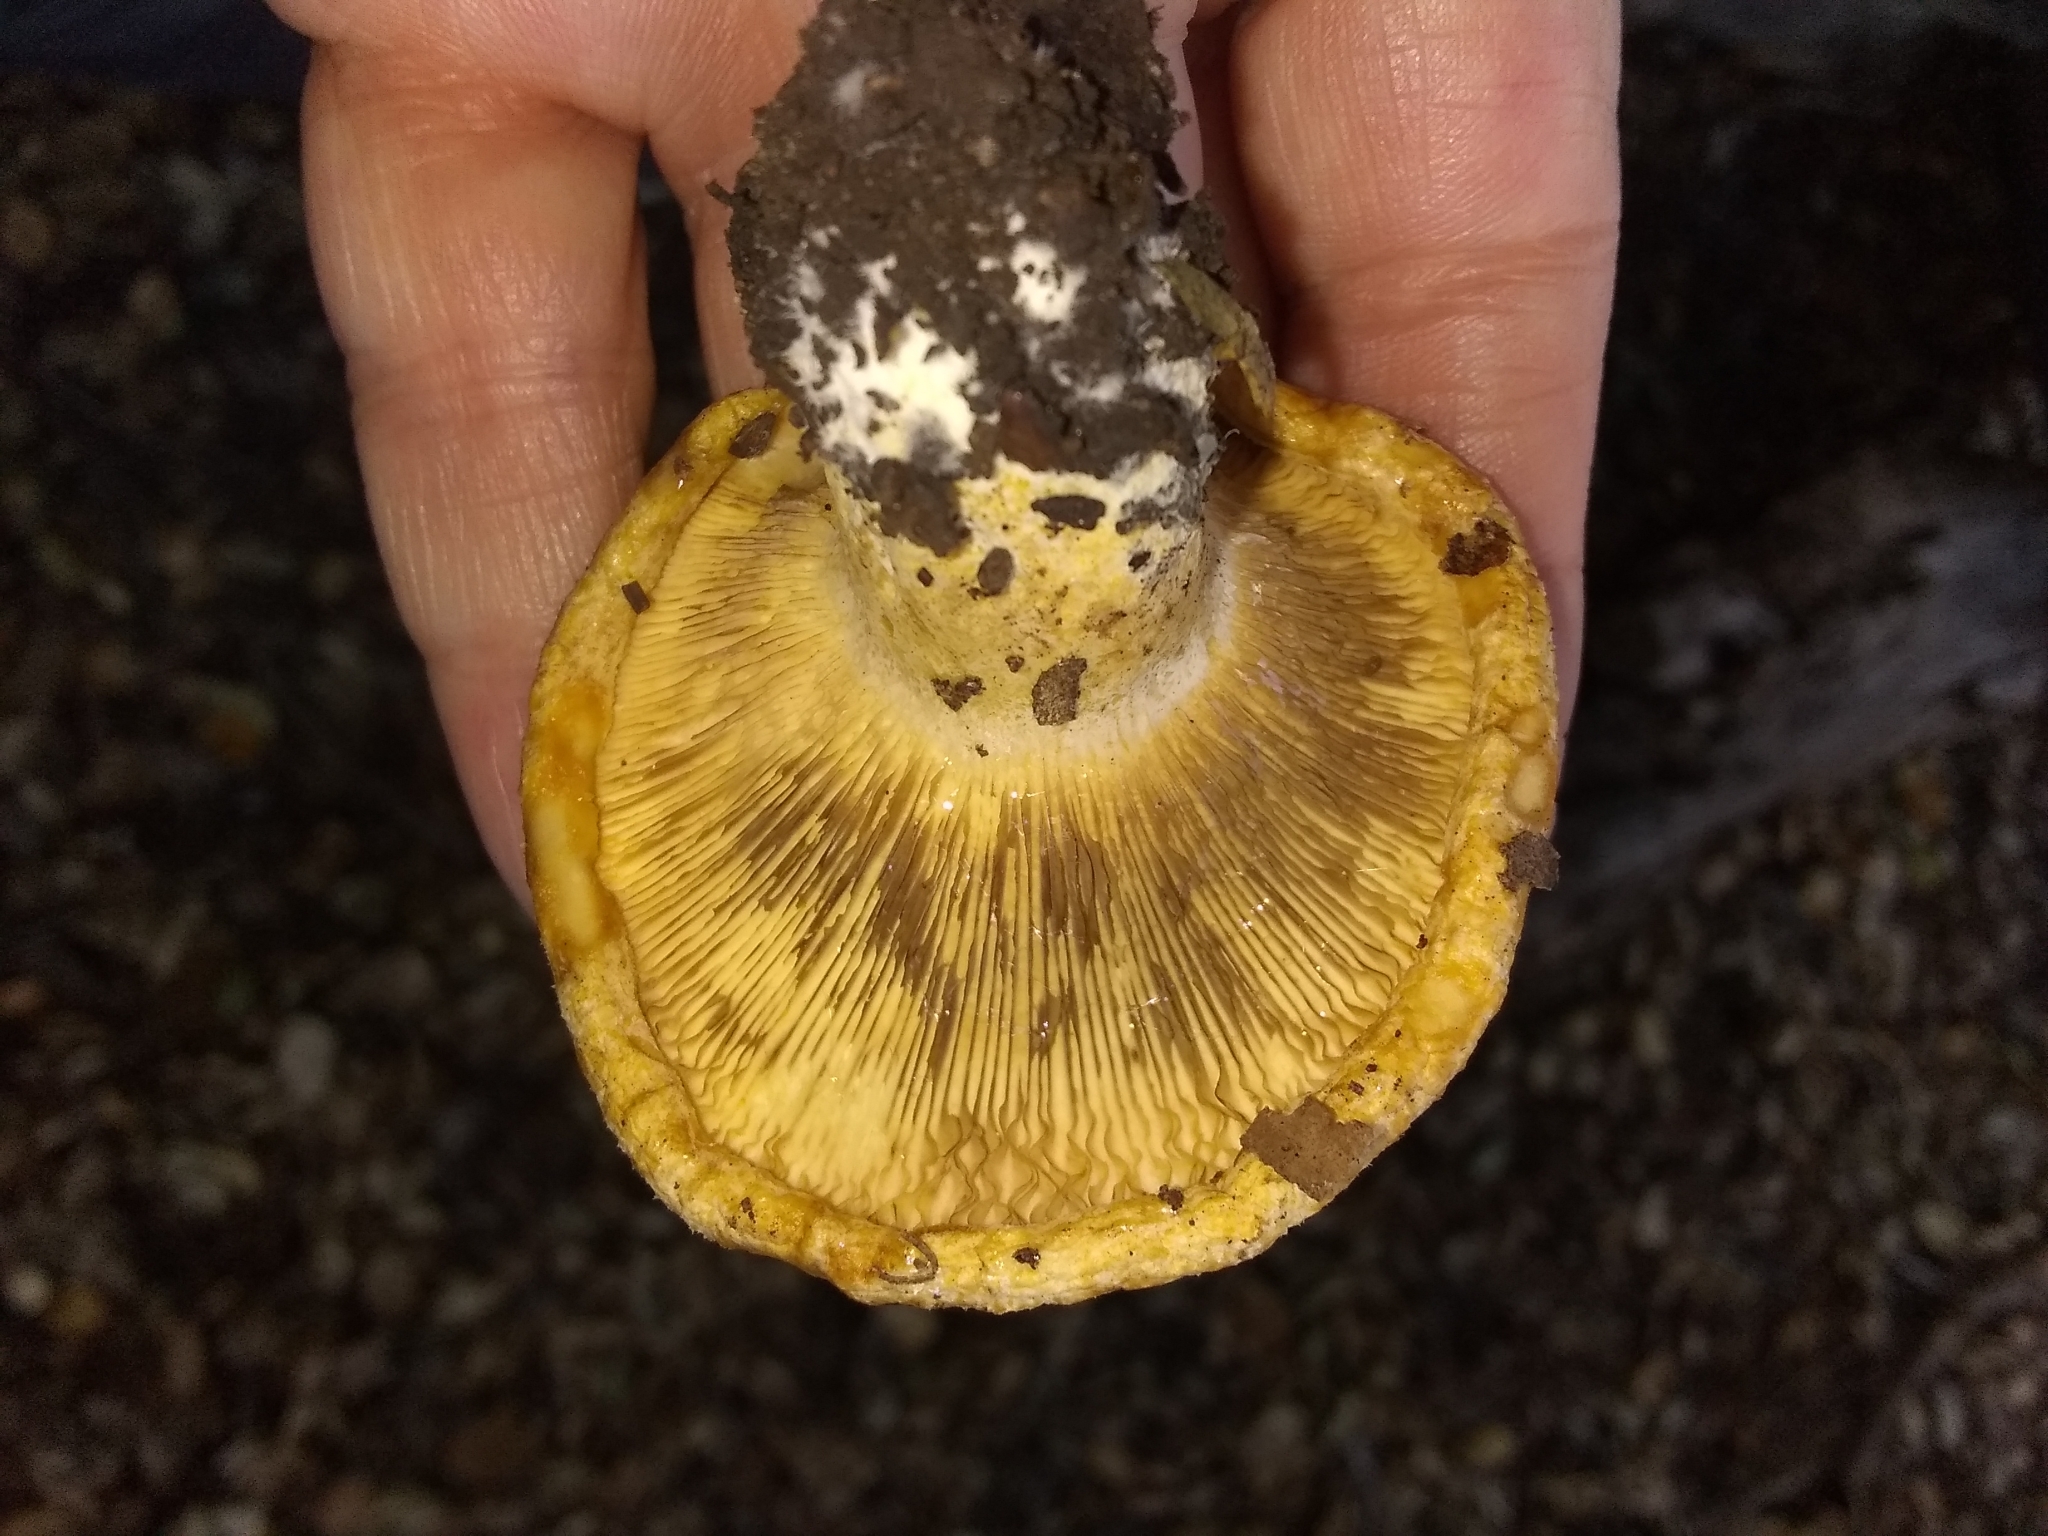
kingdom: Fungi
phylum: Basidiomycota
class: Agaricomycetes
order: Russulales
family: Russulaceae
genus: Lactarius
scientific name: Lactarius alnicola
